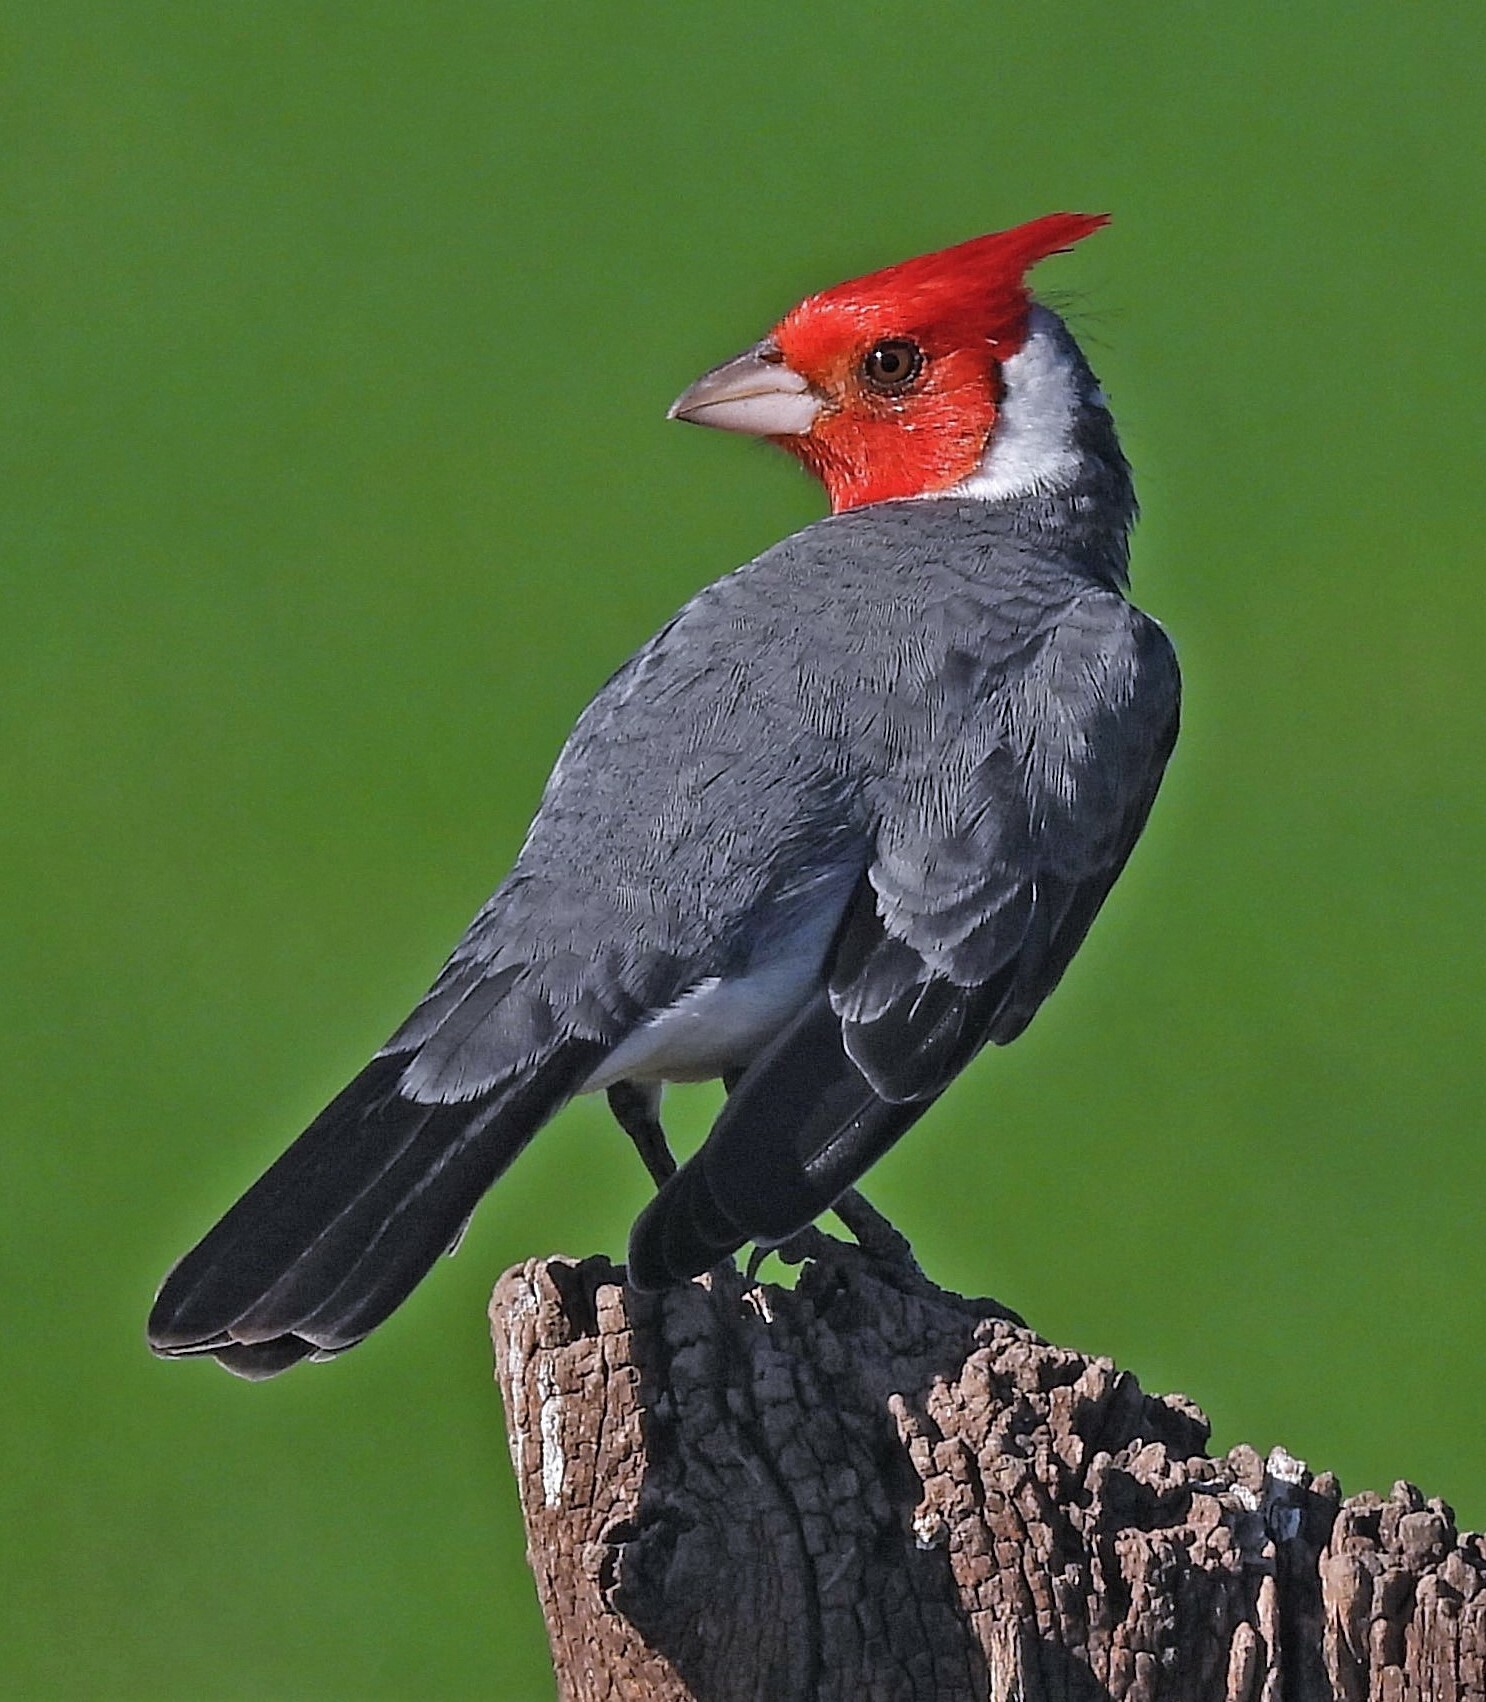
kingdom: Animalia
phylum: Chordata
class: Aves
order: Passeriformes
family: Thraupidae
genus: Paroaria
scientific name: Paroaria coronata
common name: Red-crested cardinal
